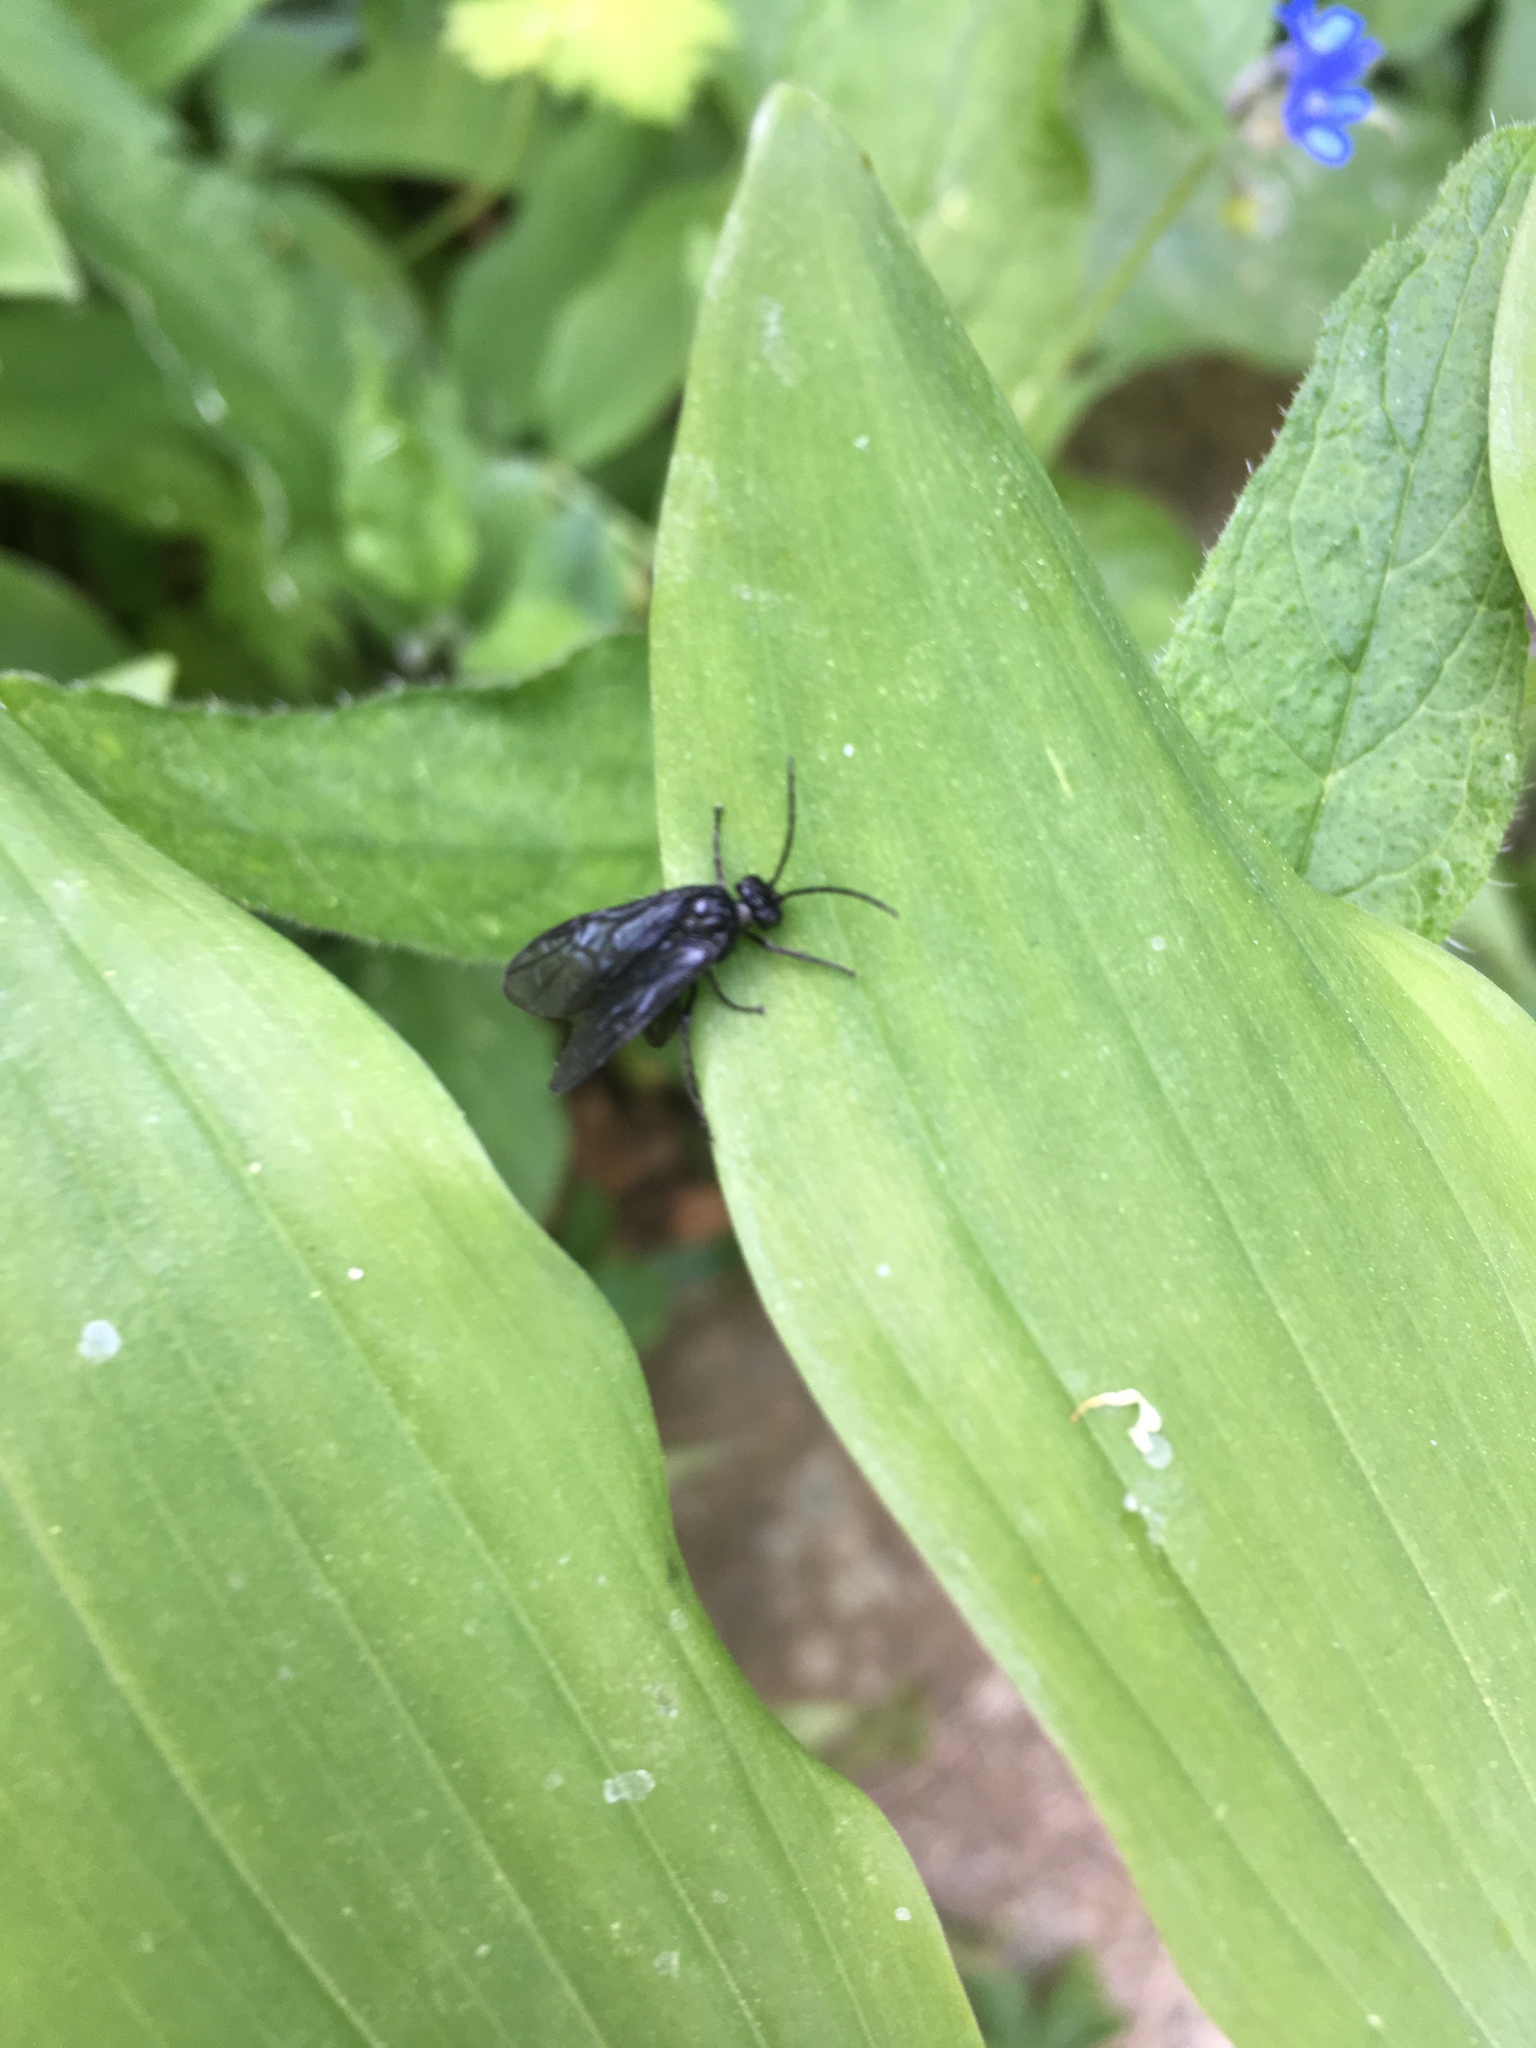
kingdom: Animalia
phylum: Arthropoda
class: Insecta
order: Hymenoptera
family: Tenthredinidae
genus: Phymatocera
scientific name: Phymatocera aterrima
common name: Solomon's-seal sawfly
